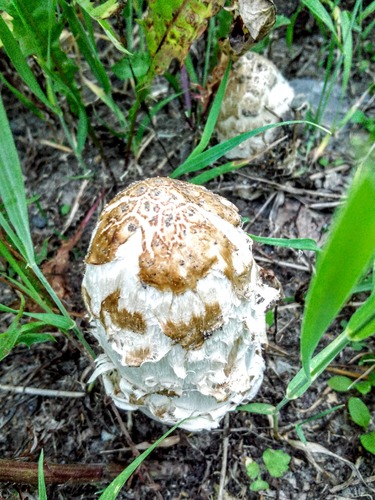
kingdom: Fungi
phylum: Basidiomycota
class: Agaricomycetes
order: Agaricales
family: Agaricaceae
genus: Coprinus
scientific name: Coprinus comatus
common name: Lawyer's wig
